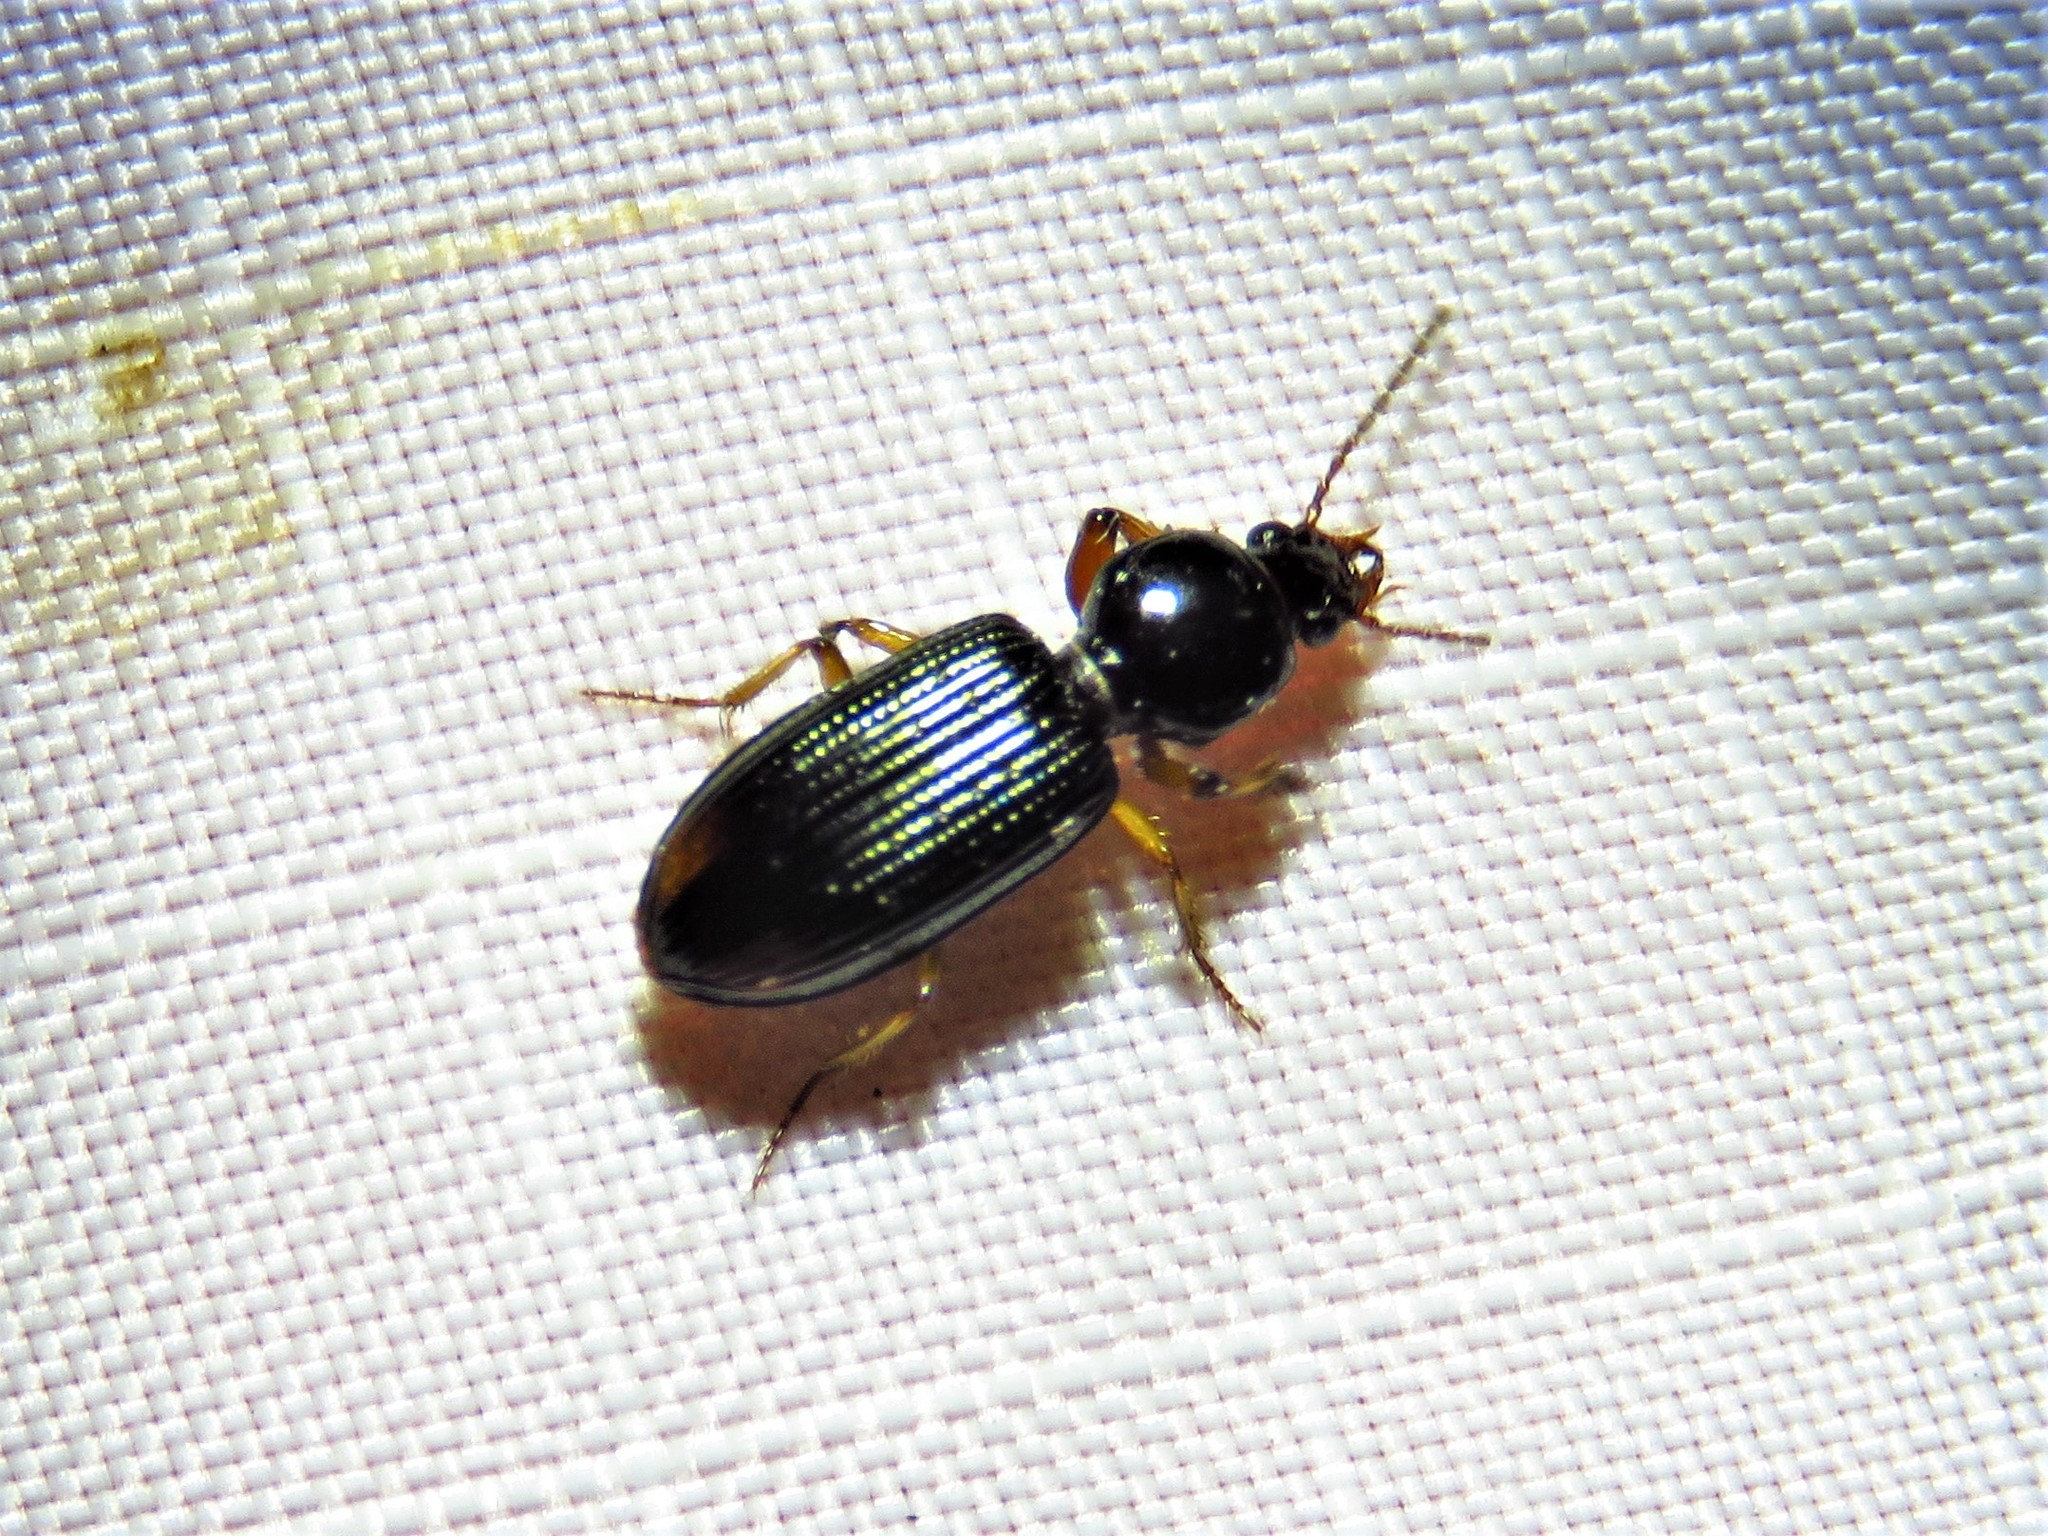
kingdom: Animalia
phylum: Arthropoda
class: Insecta
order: Coleoptera
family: Carabidae
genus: Aspidoglossa
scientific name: Aspidoglossa subangulata
